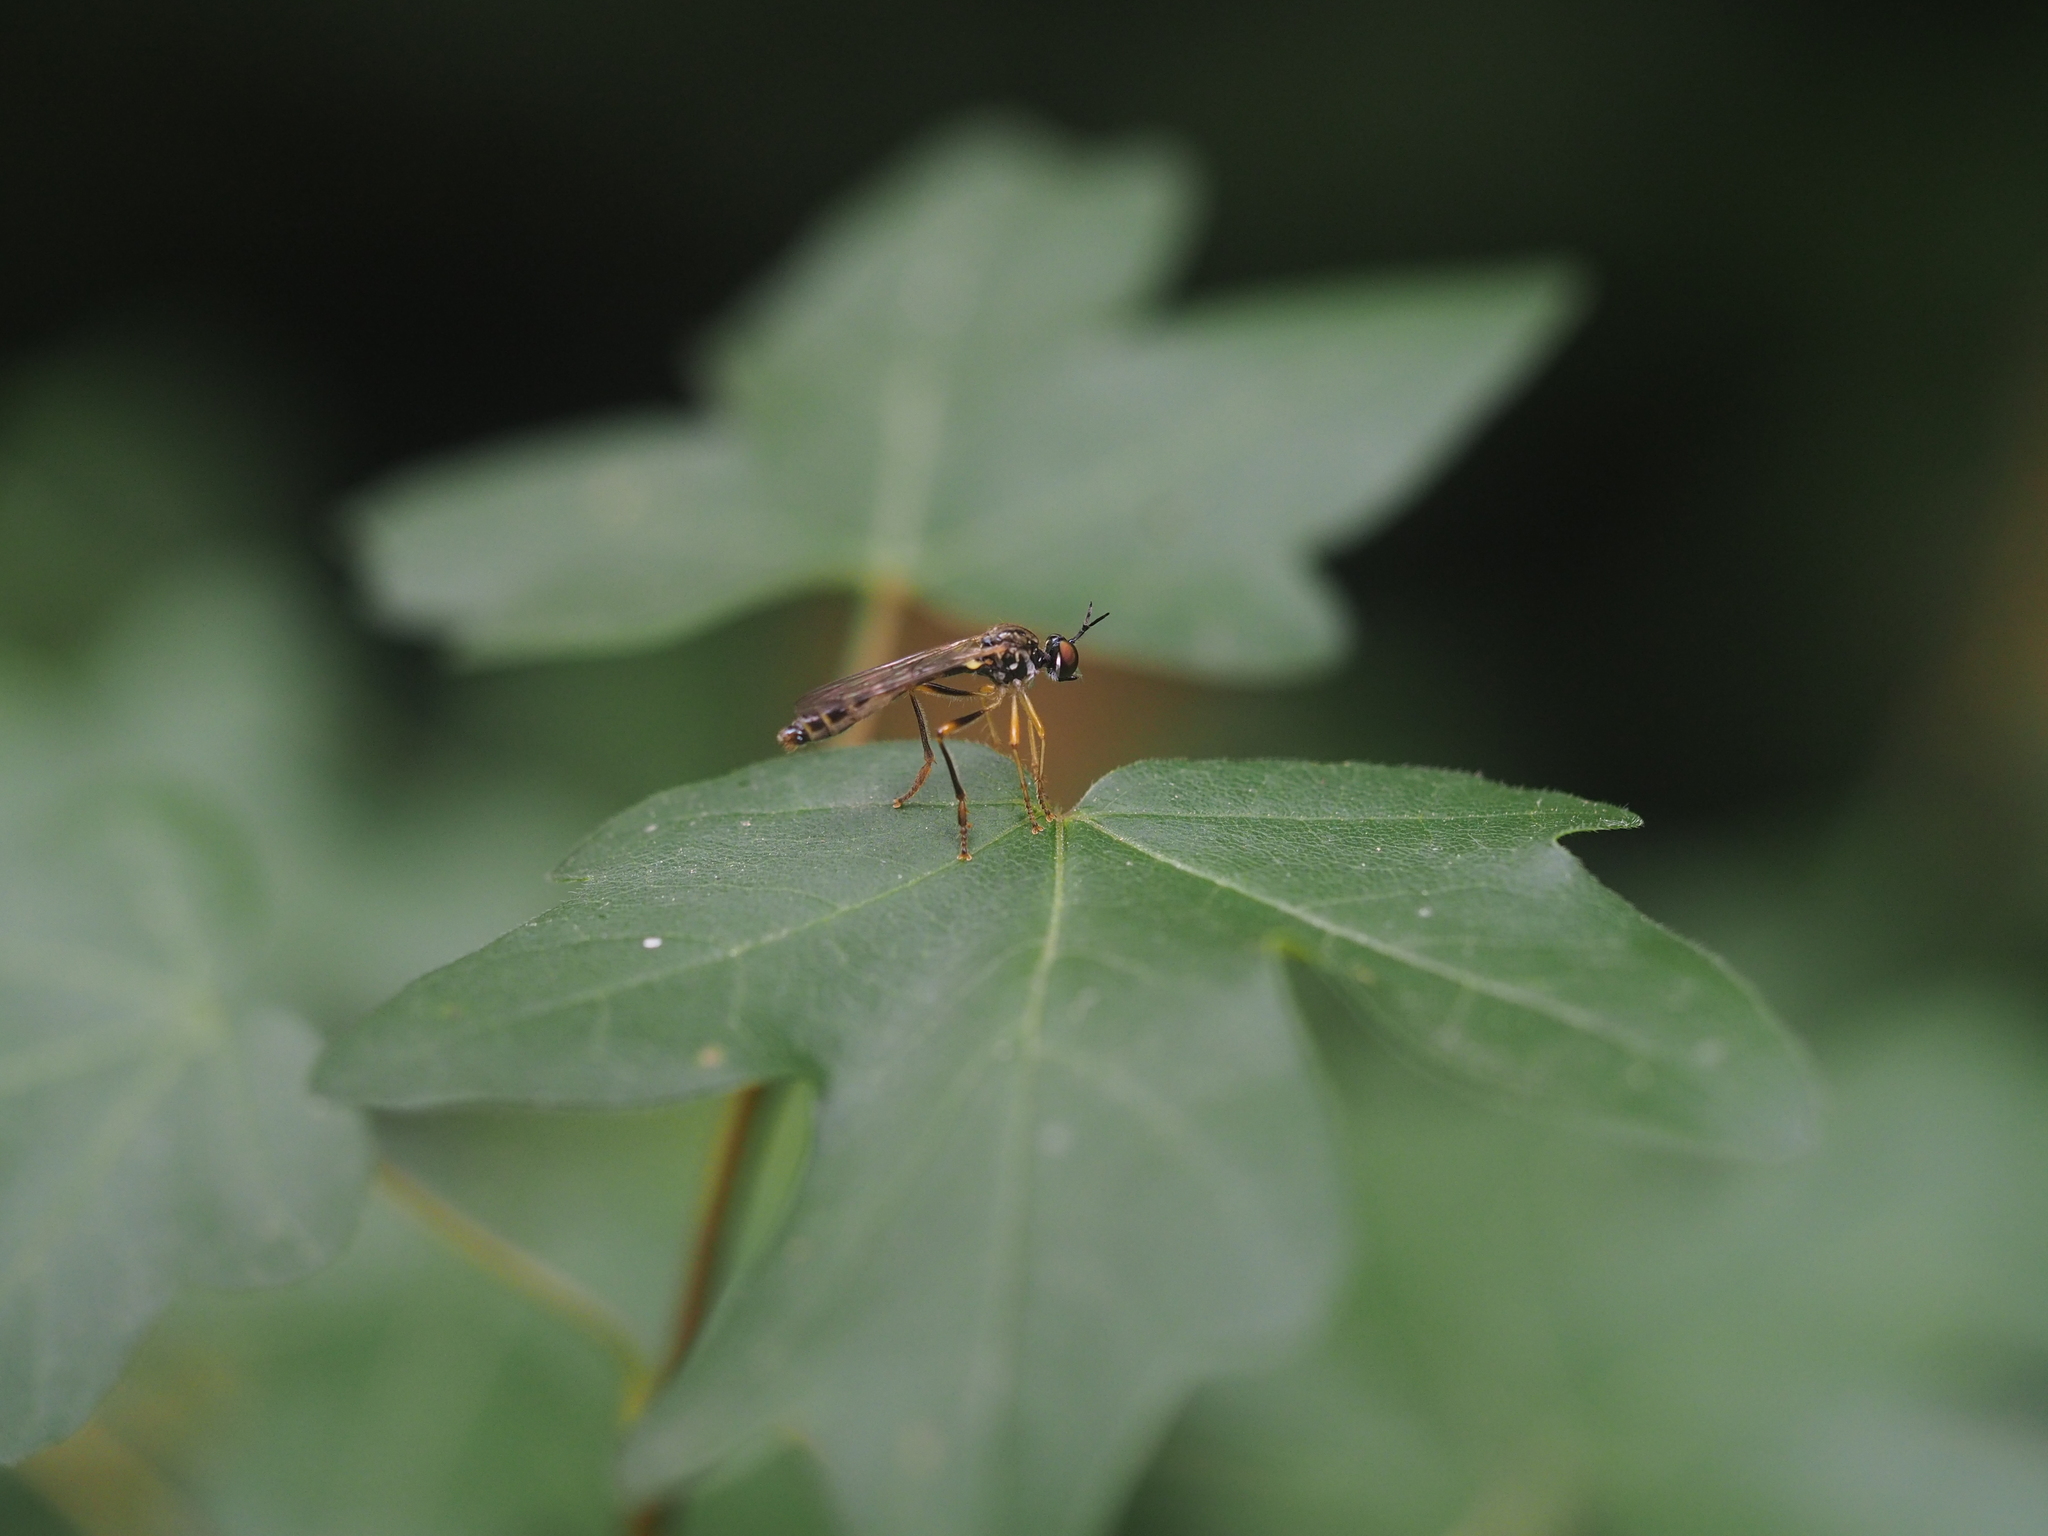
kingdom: Animalia
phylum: Arthropoda
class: Insecta
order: Diptera
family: Asilidae
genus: Dioctria
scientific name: Dioctria linearis
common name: Small yellow-legged robberfly
